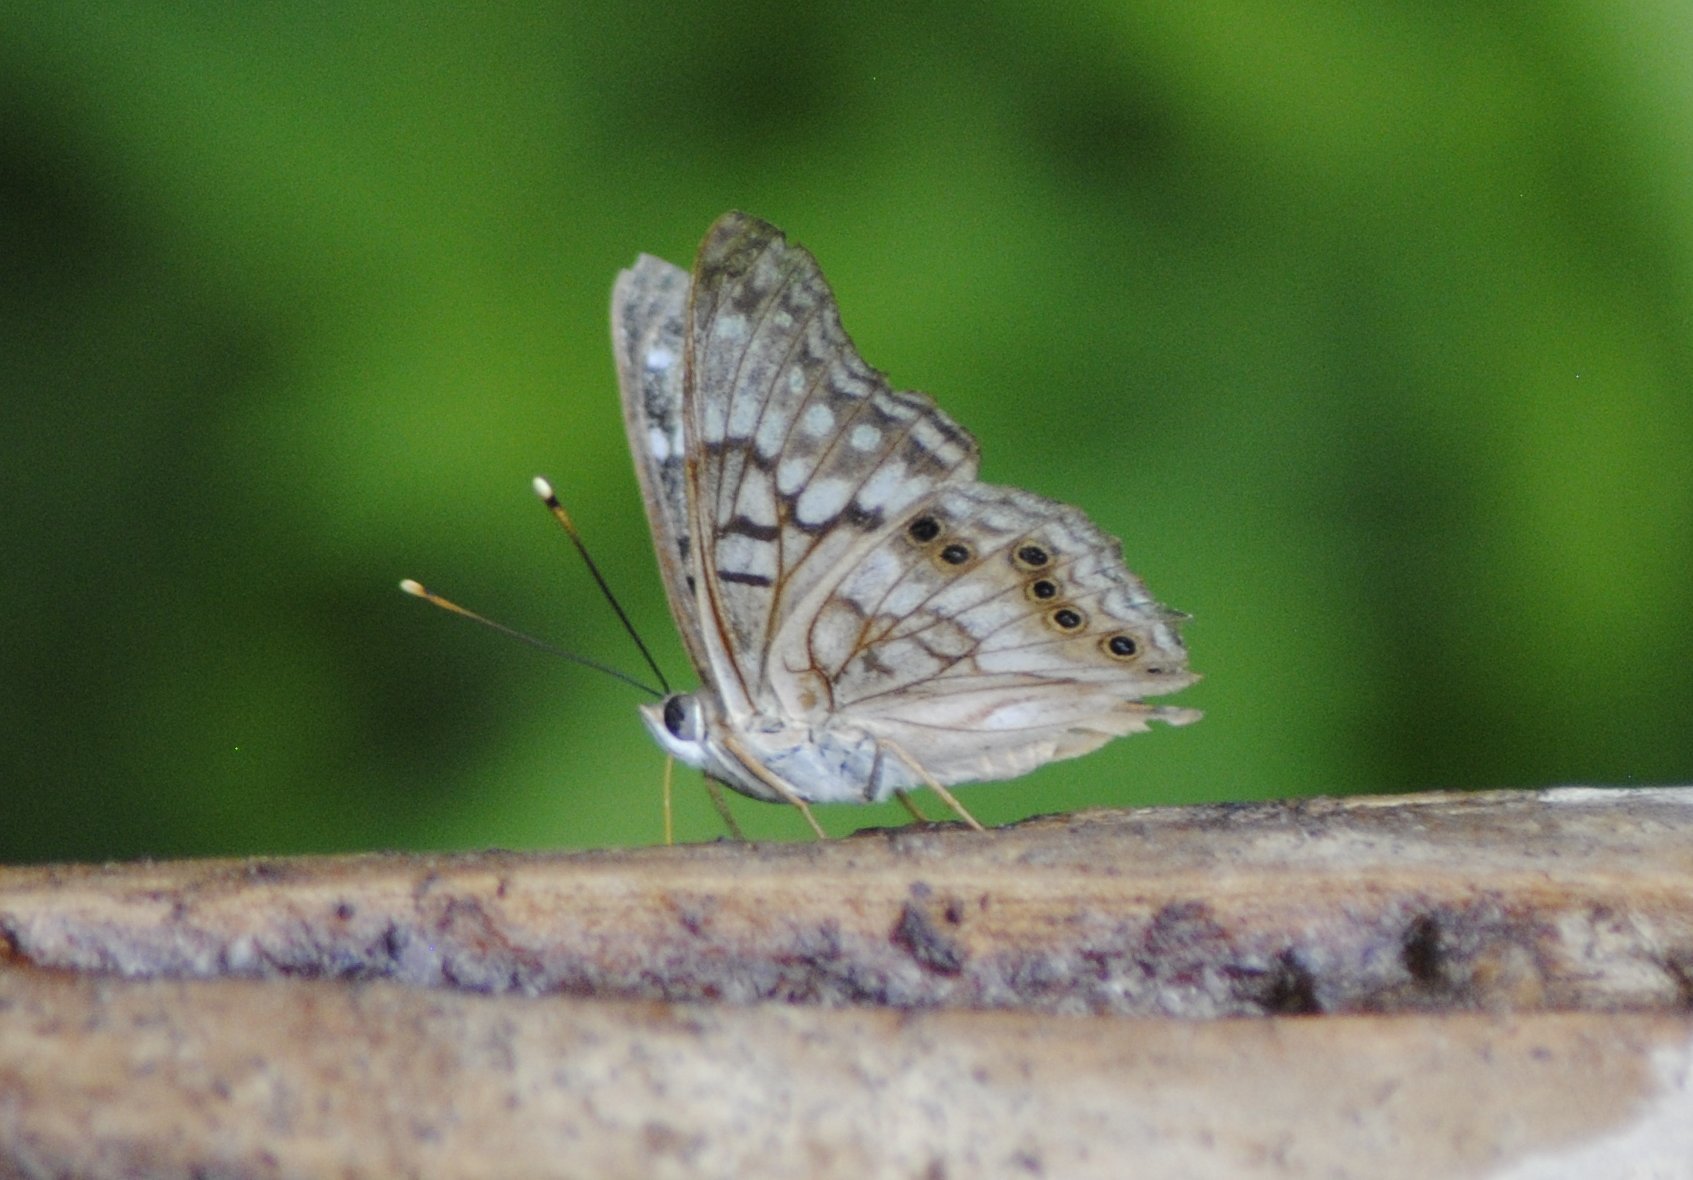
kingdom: Animalia
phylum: Arthropoda
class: Insecta
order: Lepidoptera
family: Nymphalidae
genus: Asterocampa
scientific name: Asterocampa clyton
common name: Tawny emperor
